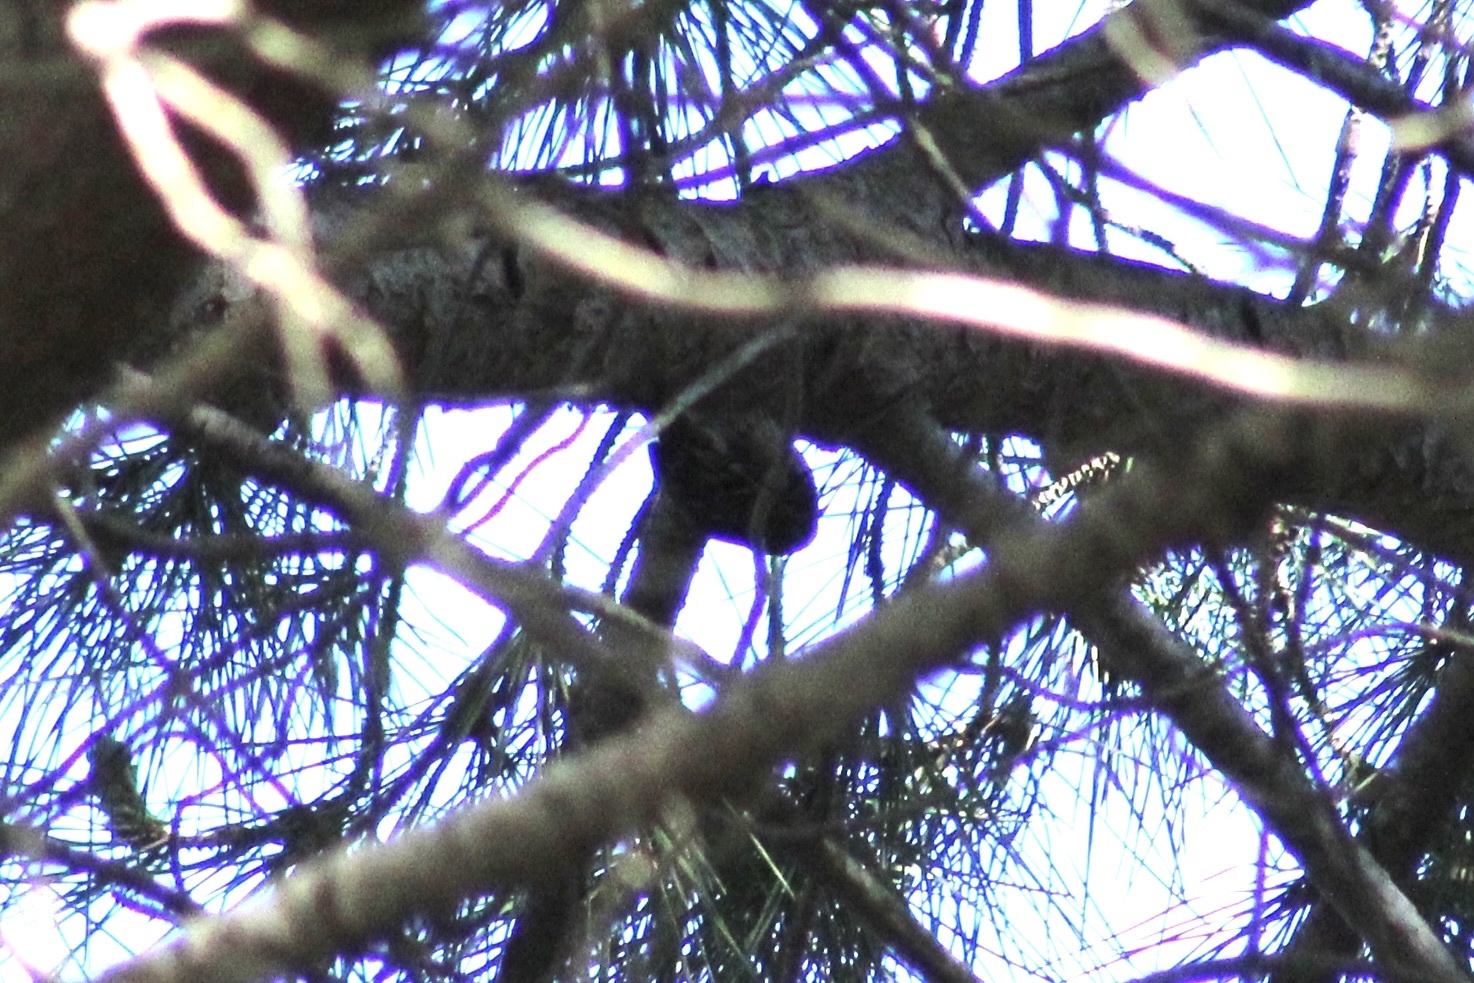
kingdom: Animalia
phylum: Chordata
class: Aves
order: Passeriformes
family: Certhiidae
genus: Certhia
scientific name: Certhia brachydactyla
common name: Short-toed treecreeper
